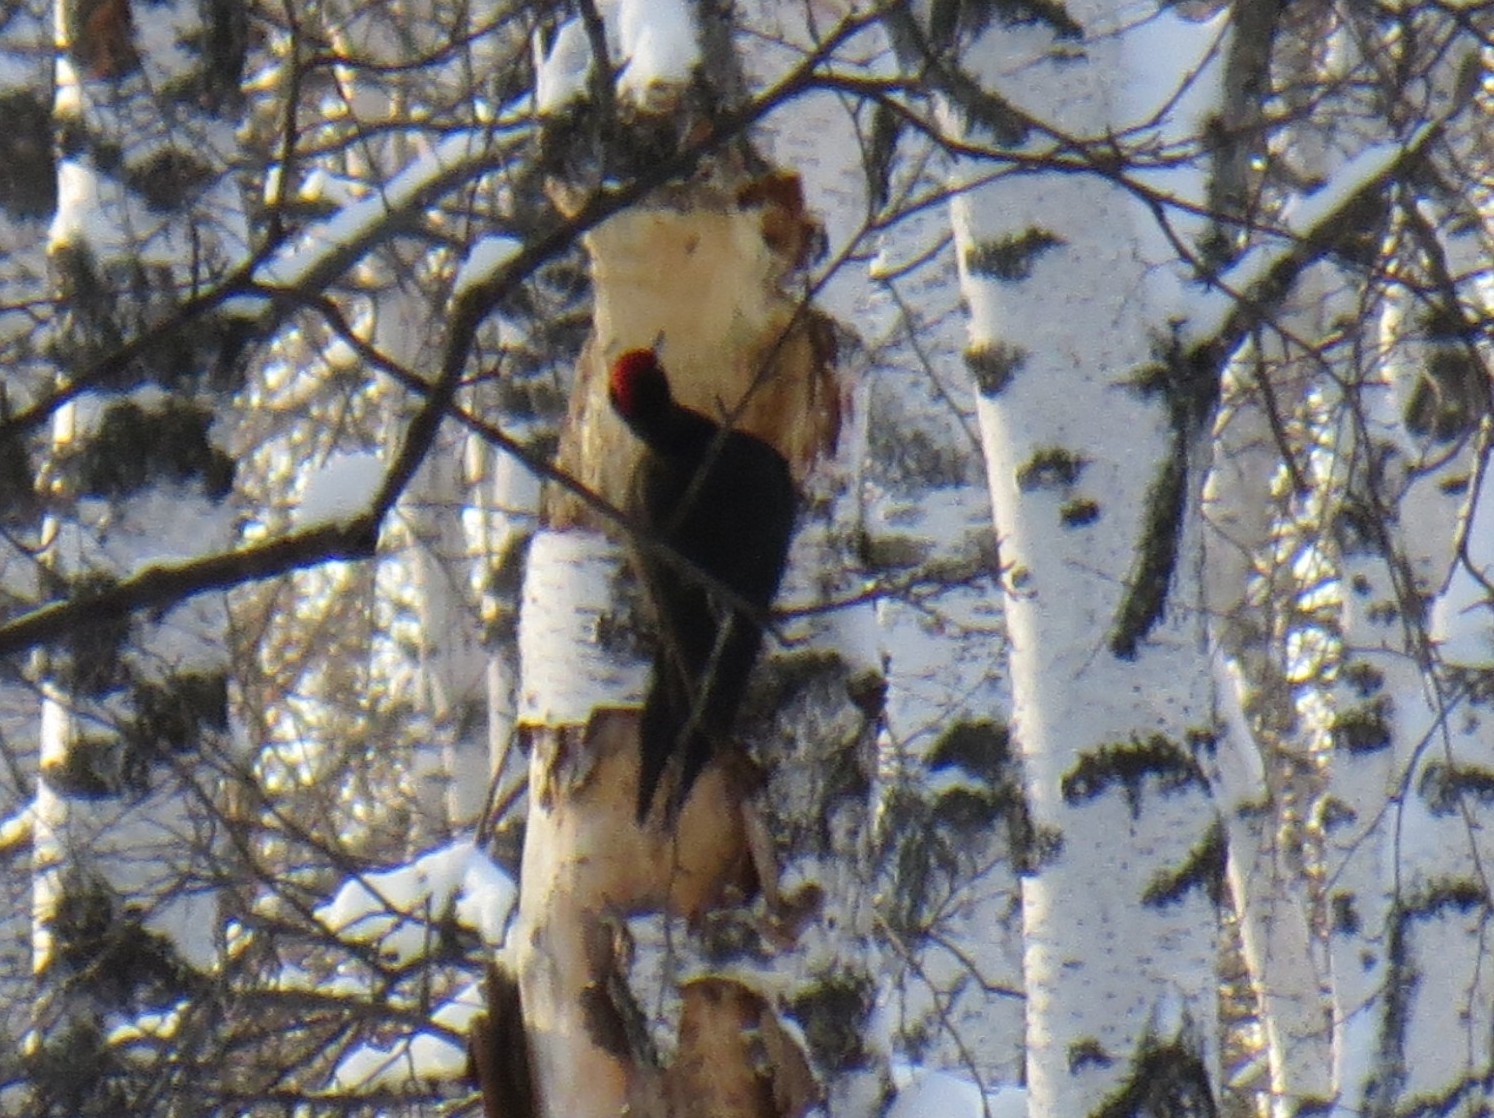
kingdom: Animalia
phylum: Chordata
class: Aves
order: Piciformes
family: Picidae
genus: Dryocopus
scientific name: Dryocopus martius
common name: Black woodpecker
